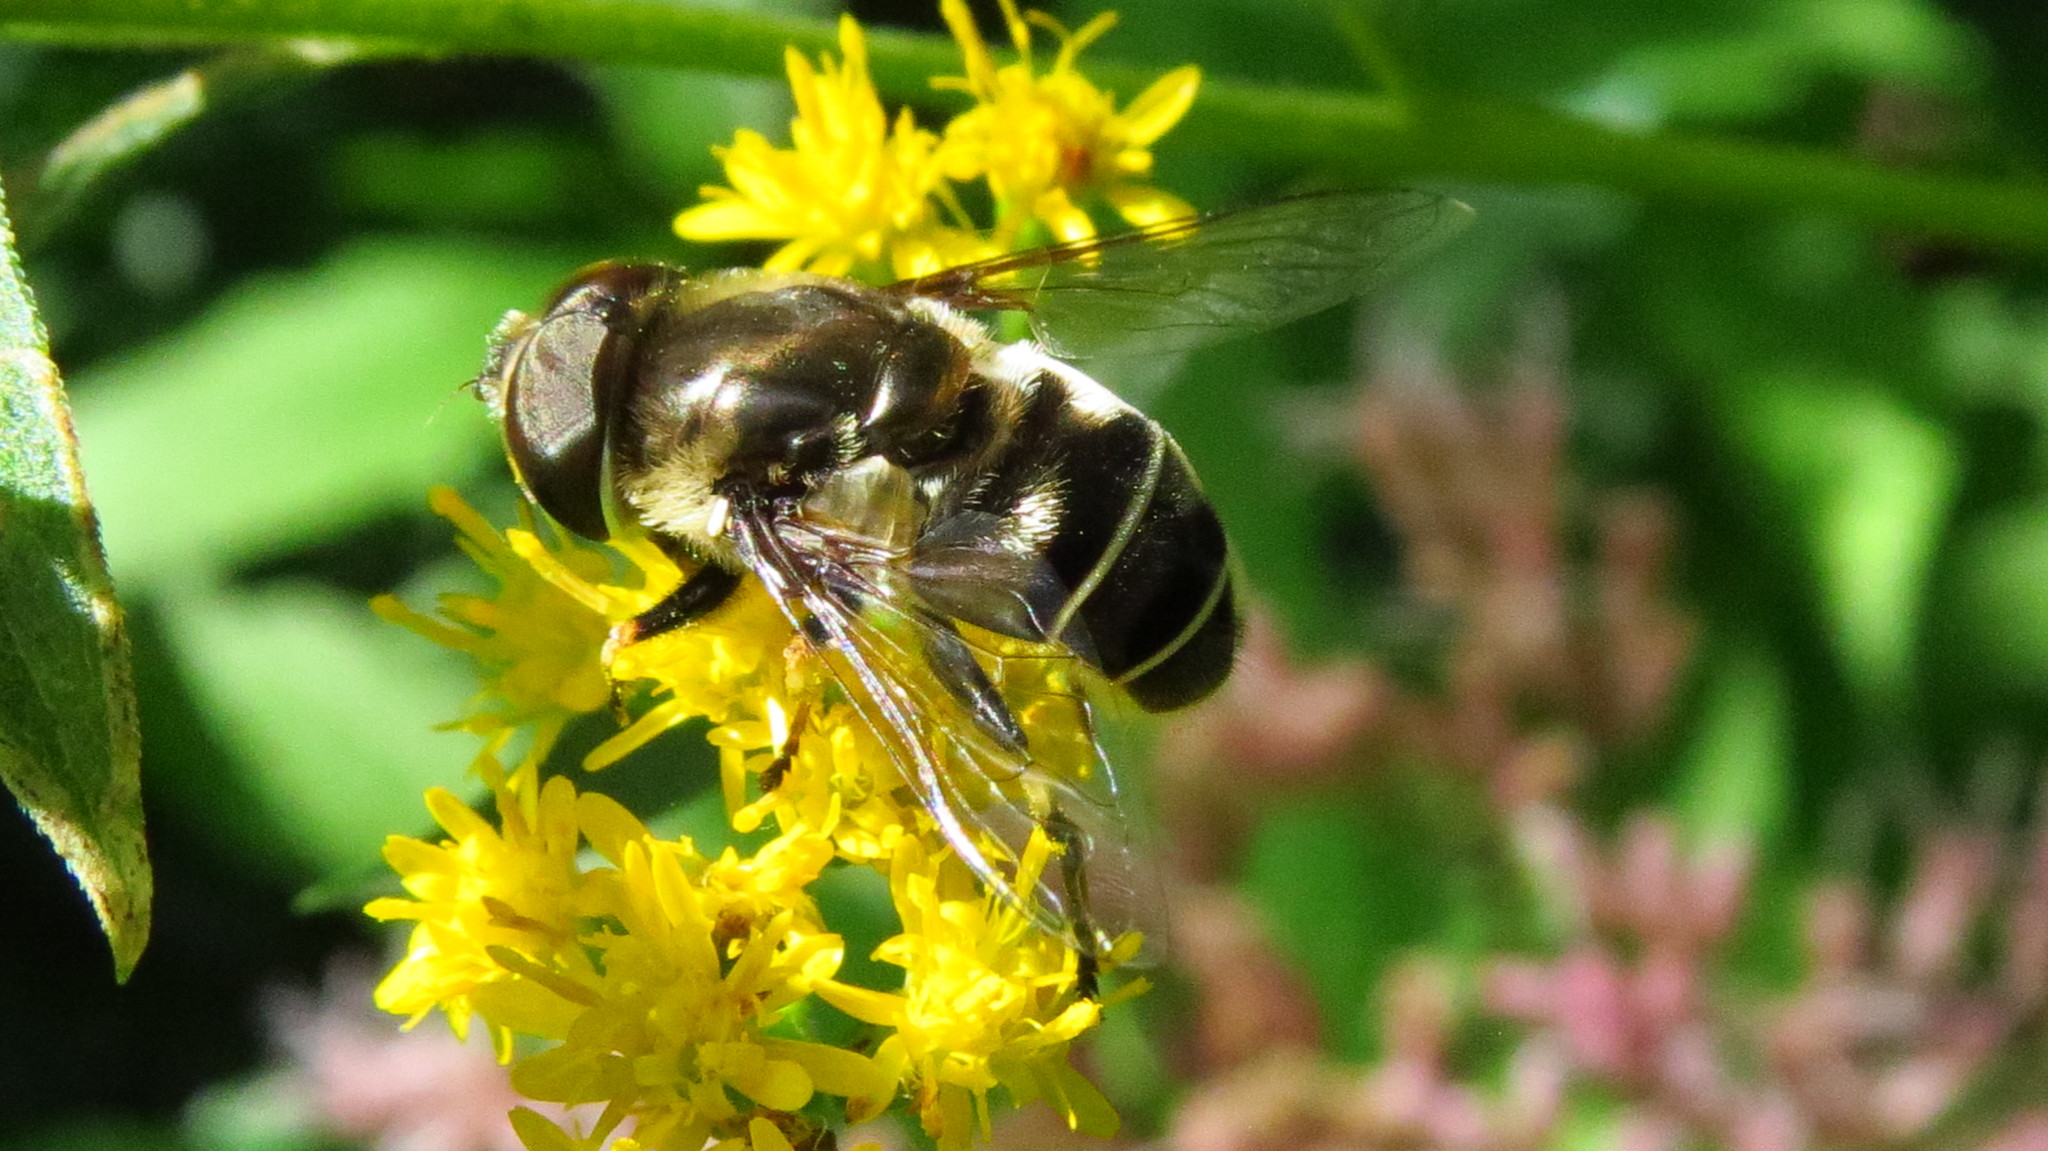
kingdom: Animalia
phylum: Arthropoda
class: Insecta
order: Diptera
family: Syrphidae
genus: Eristalis
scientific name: Eristalis dimidiata
